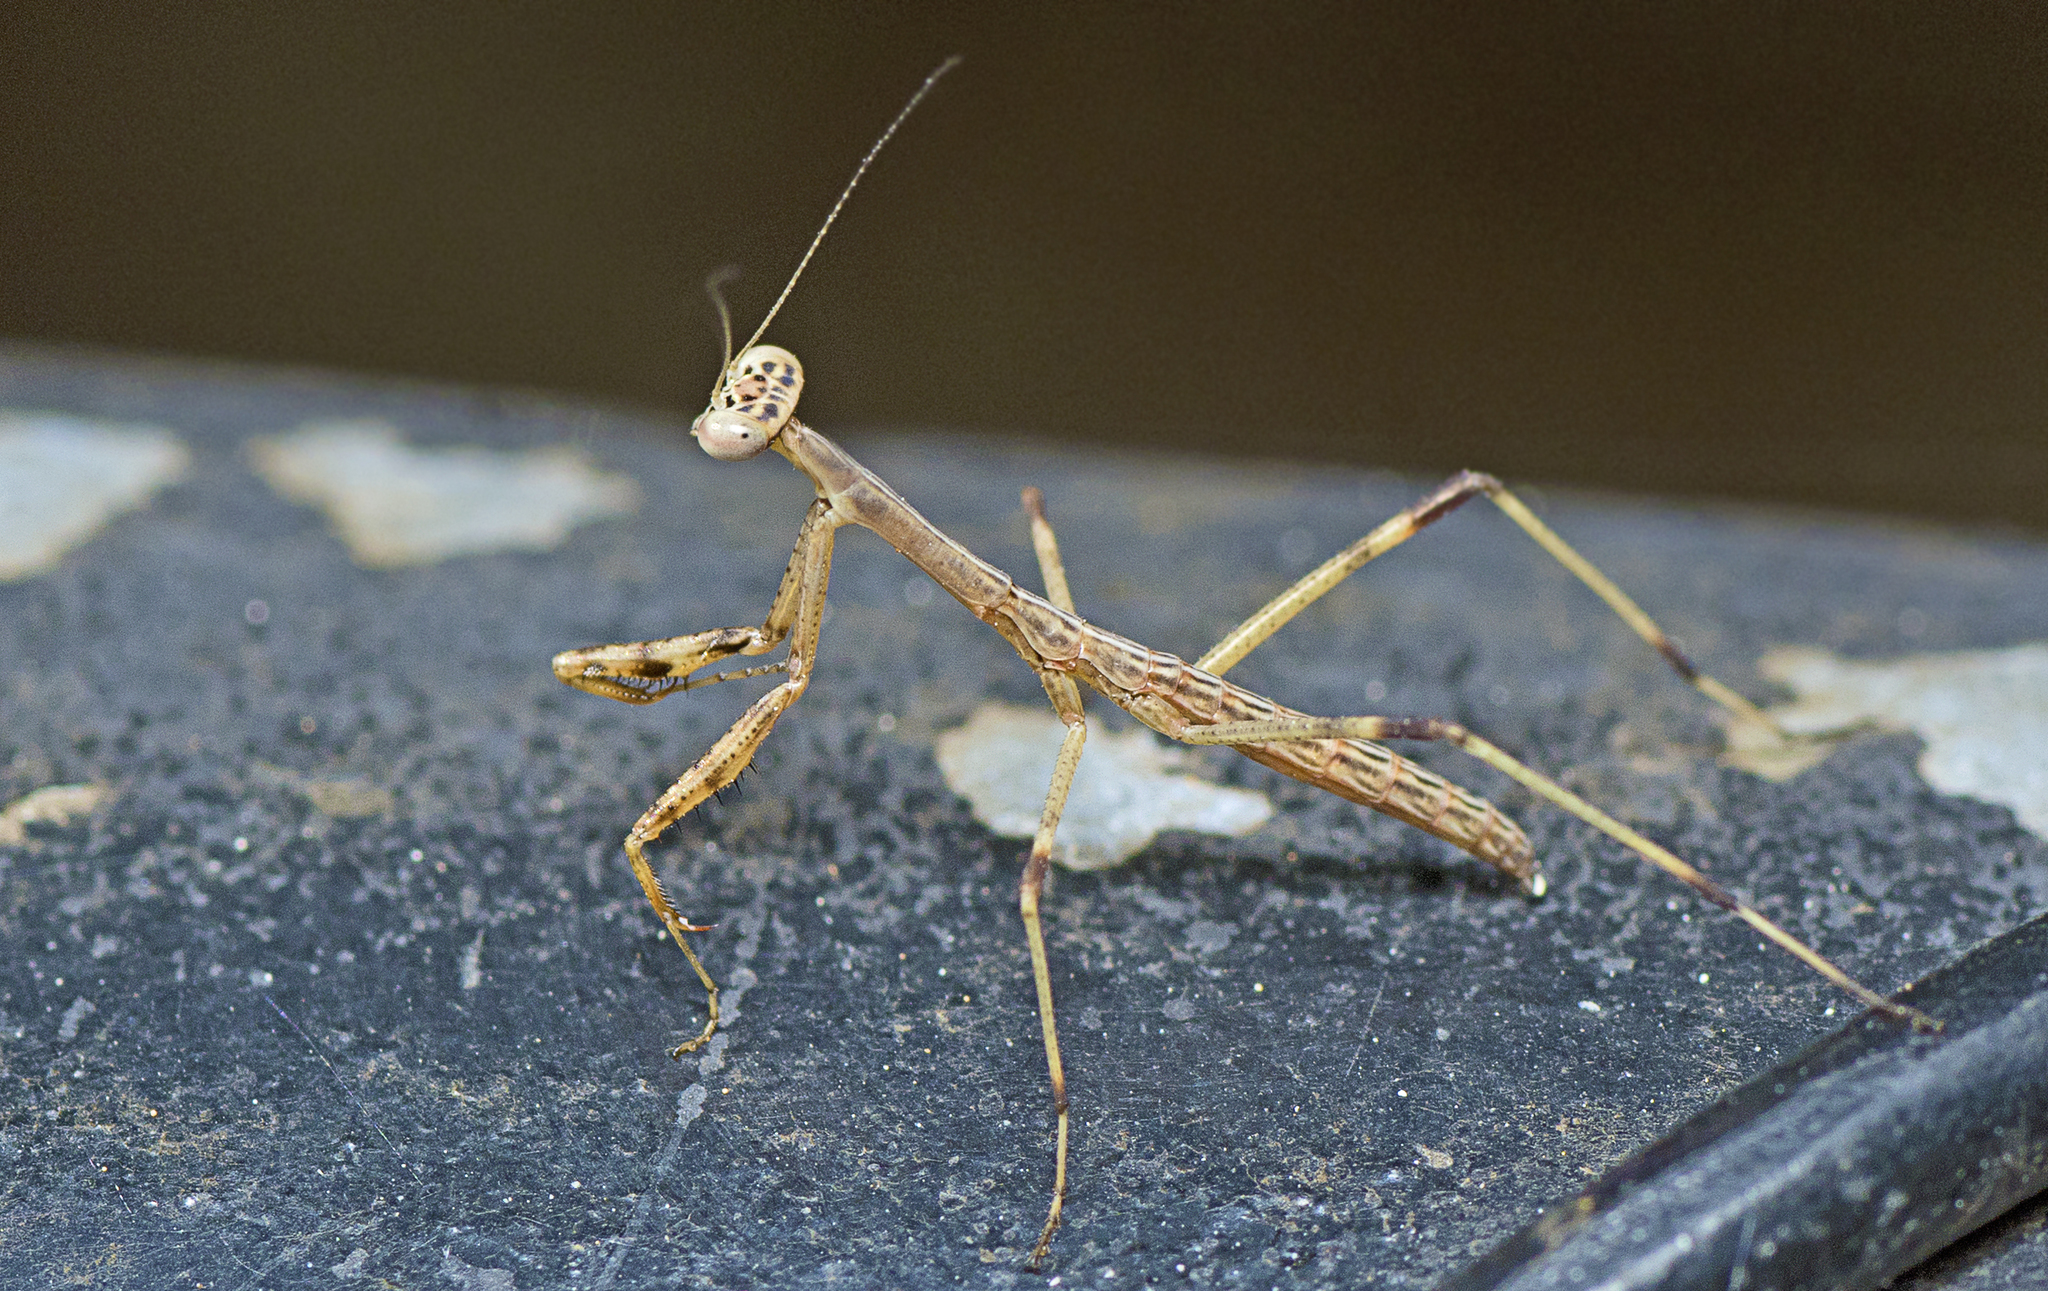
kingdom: Animalia
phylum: Arthropoda
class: Insecta
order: Mantodea
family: Mantidae
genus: Archimantis
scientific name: Archimantis latistyla
